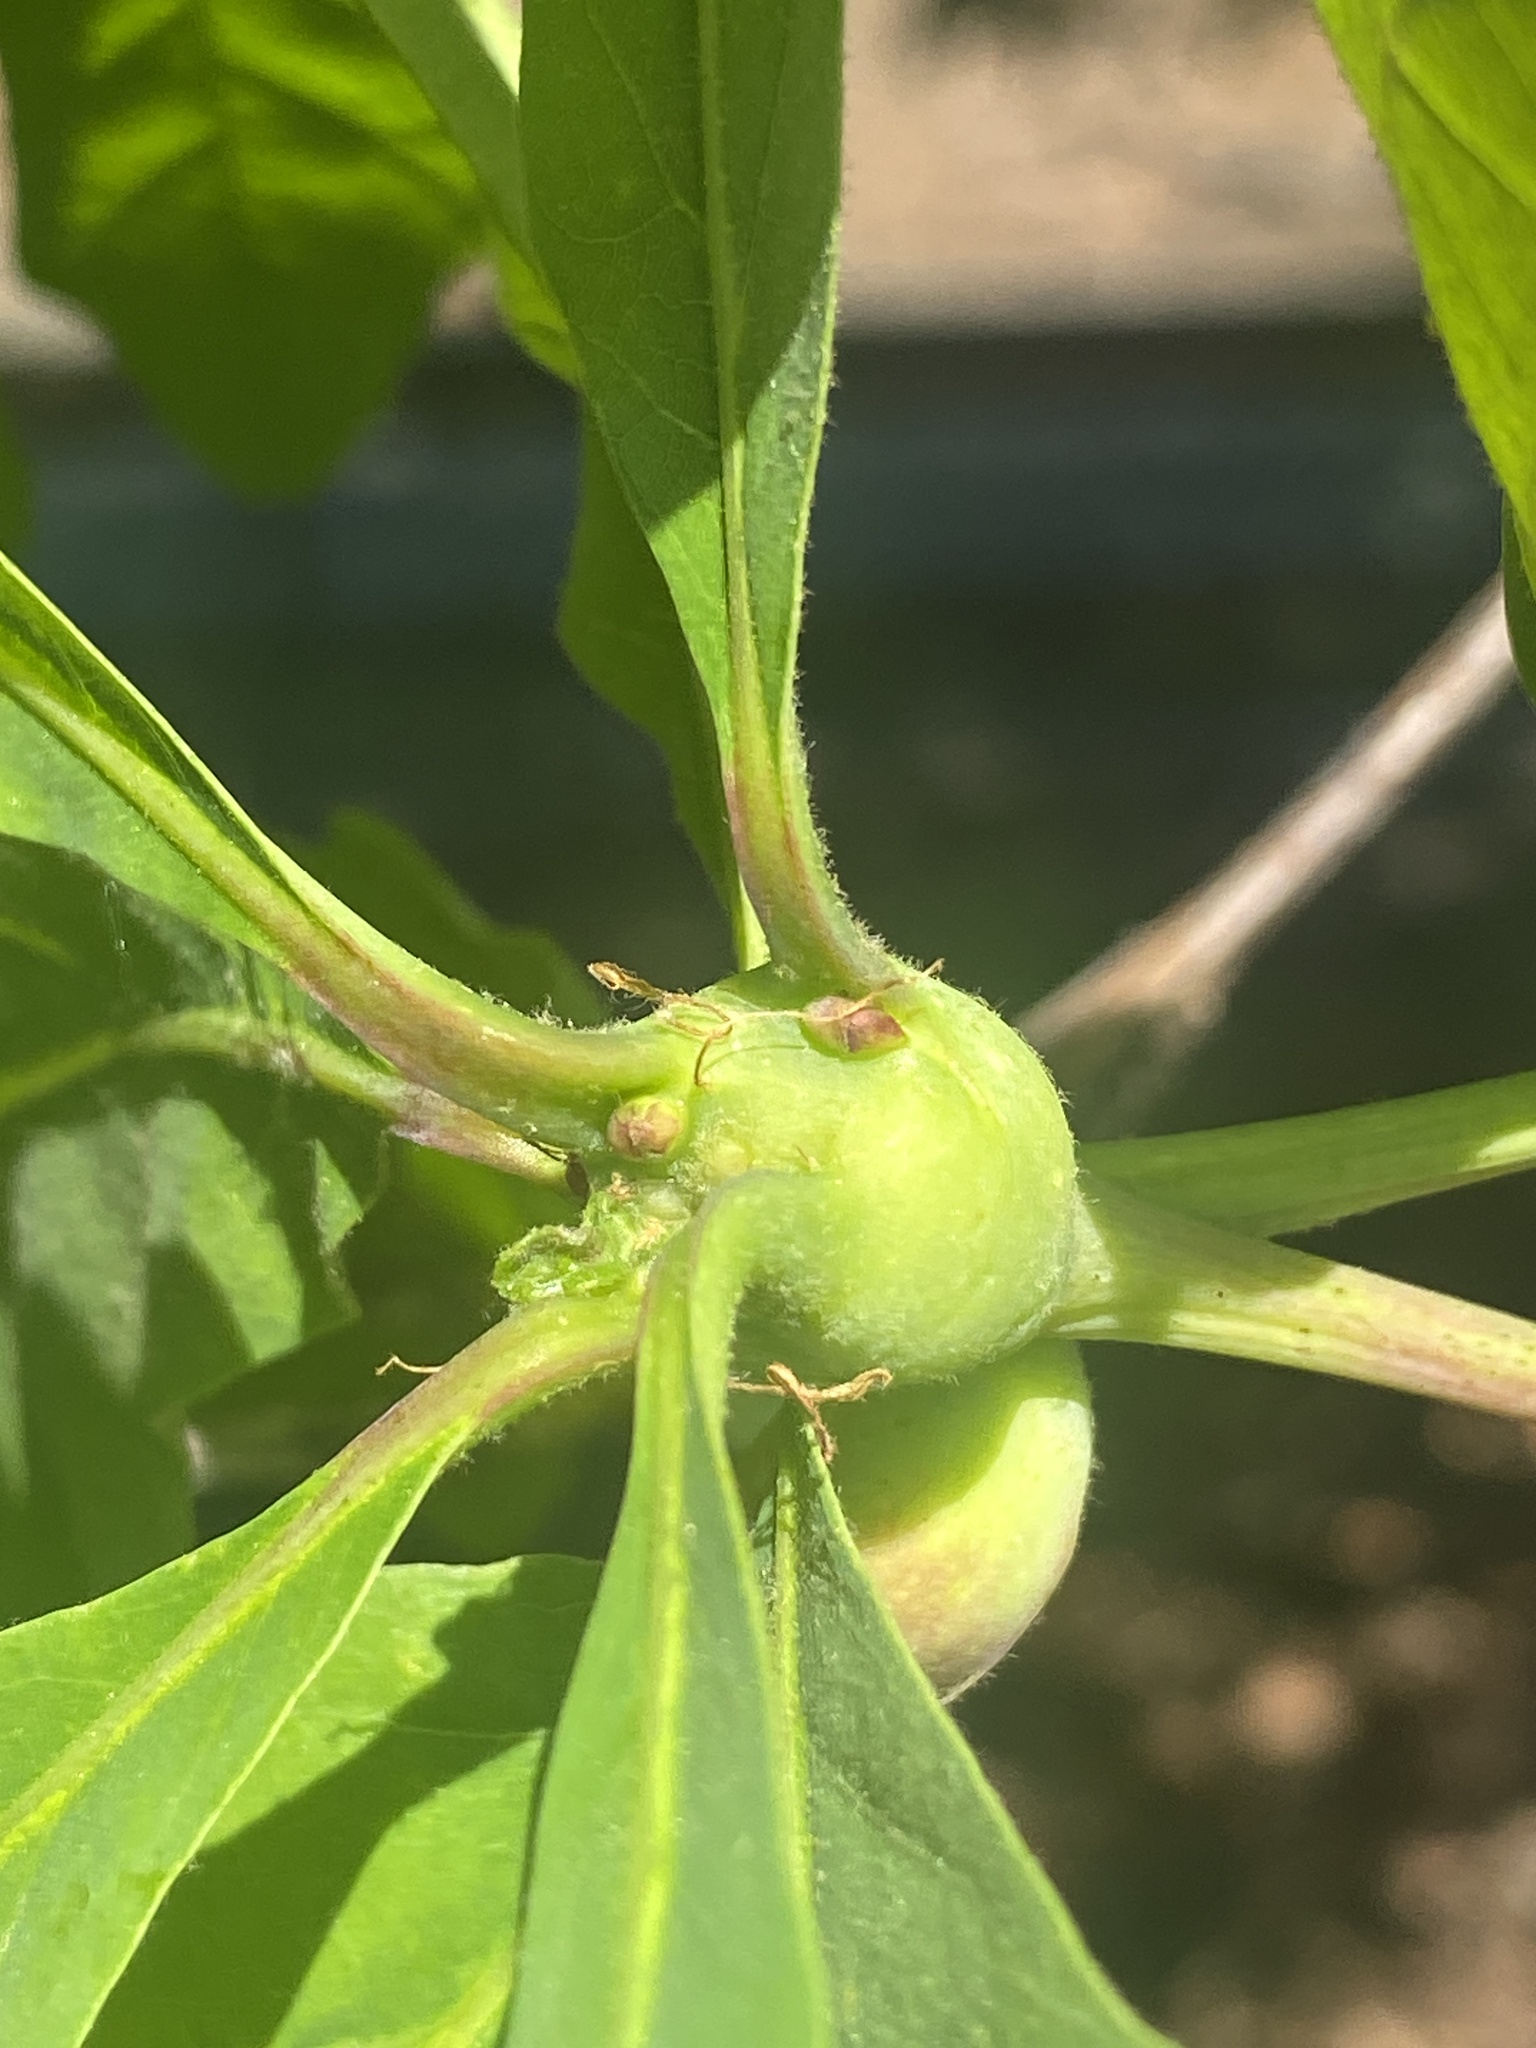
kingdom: Animalia
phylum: Arthropoda
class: Insecta
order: Hymenoptera
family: Cynipidae
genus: Callirhytis
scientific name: Callirhytis clavula
